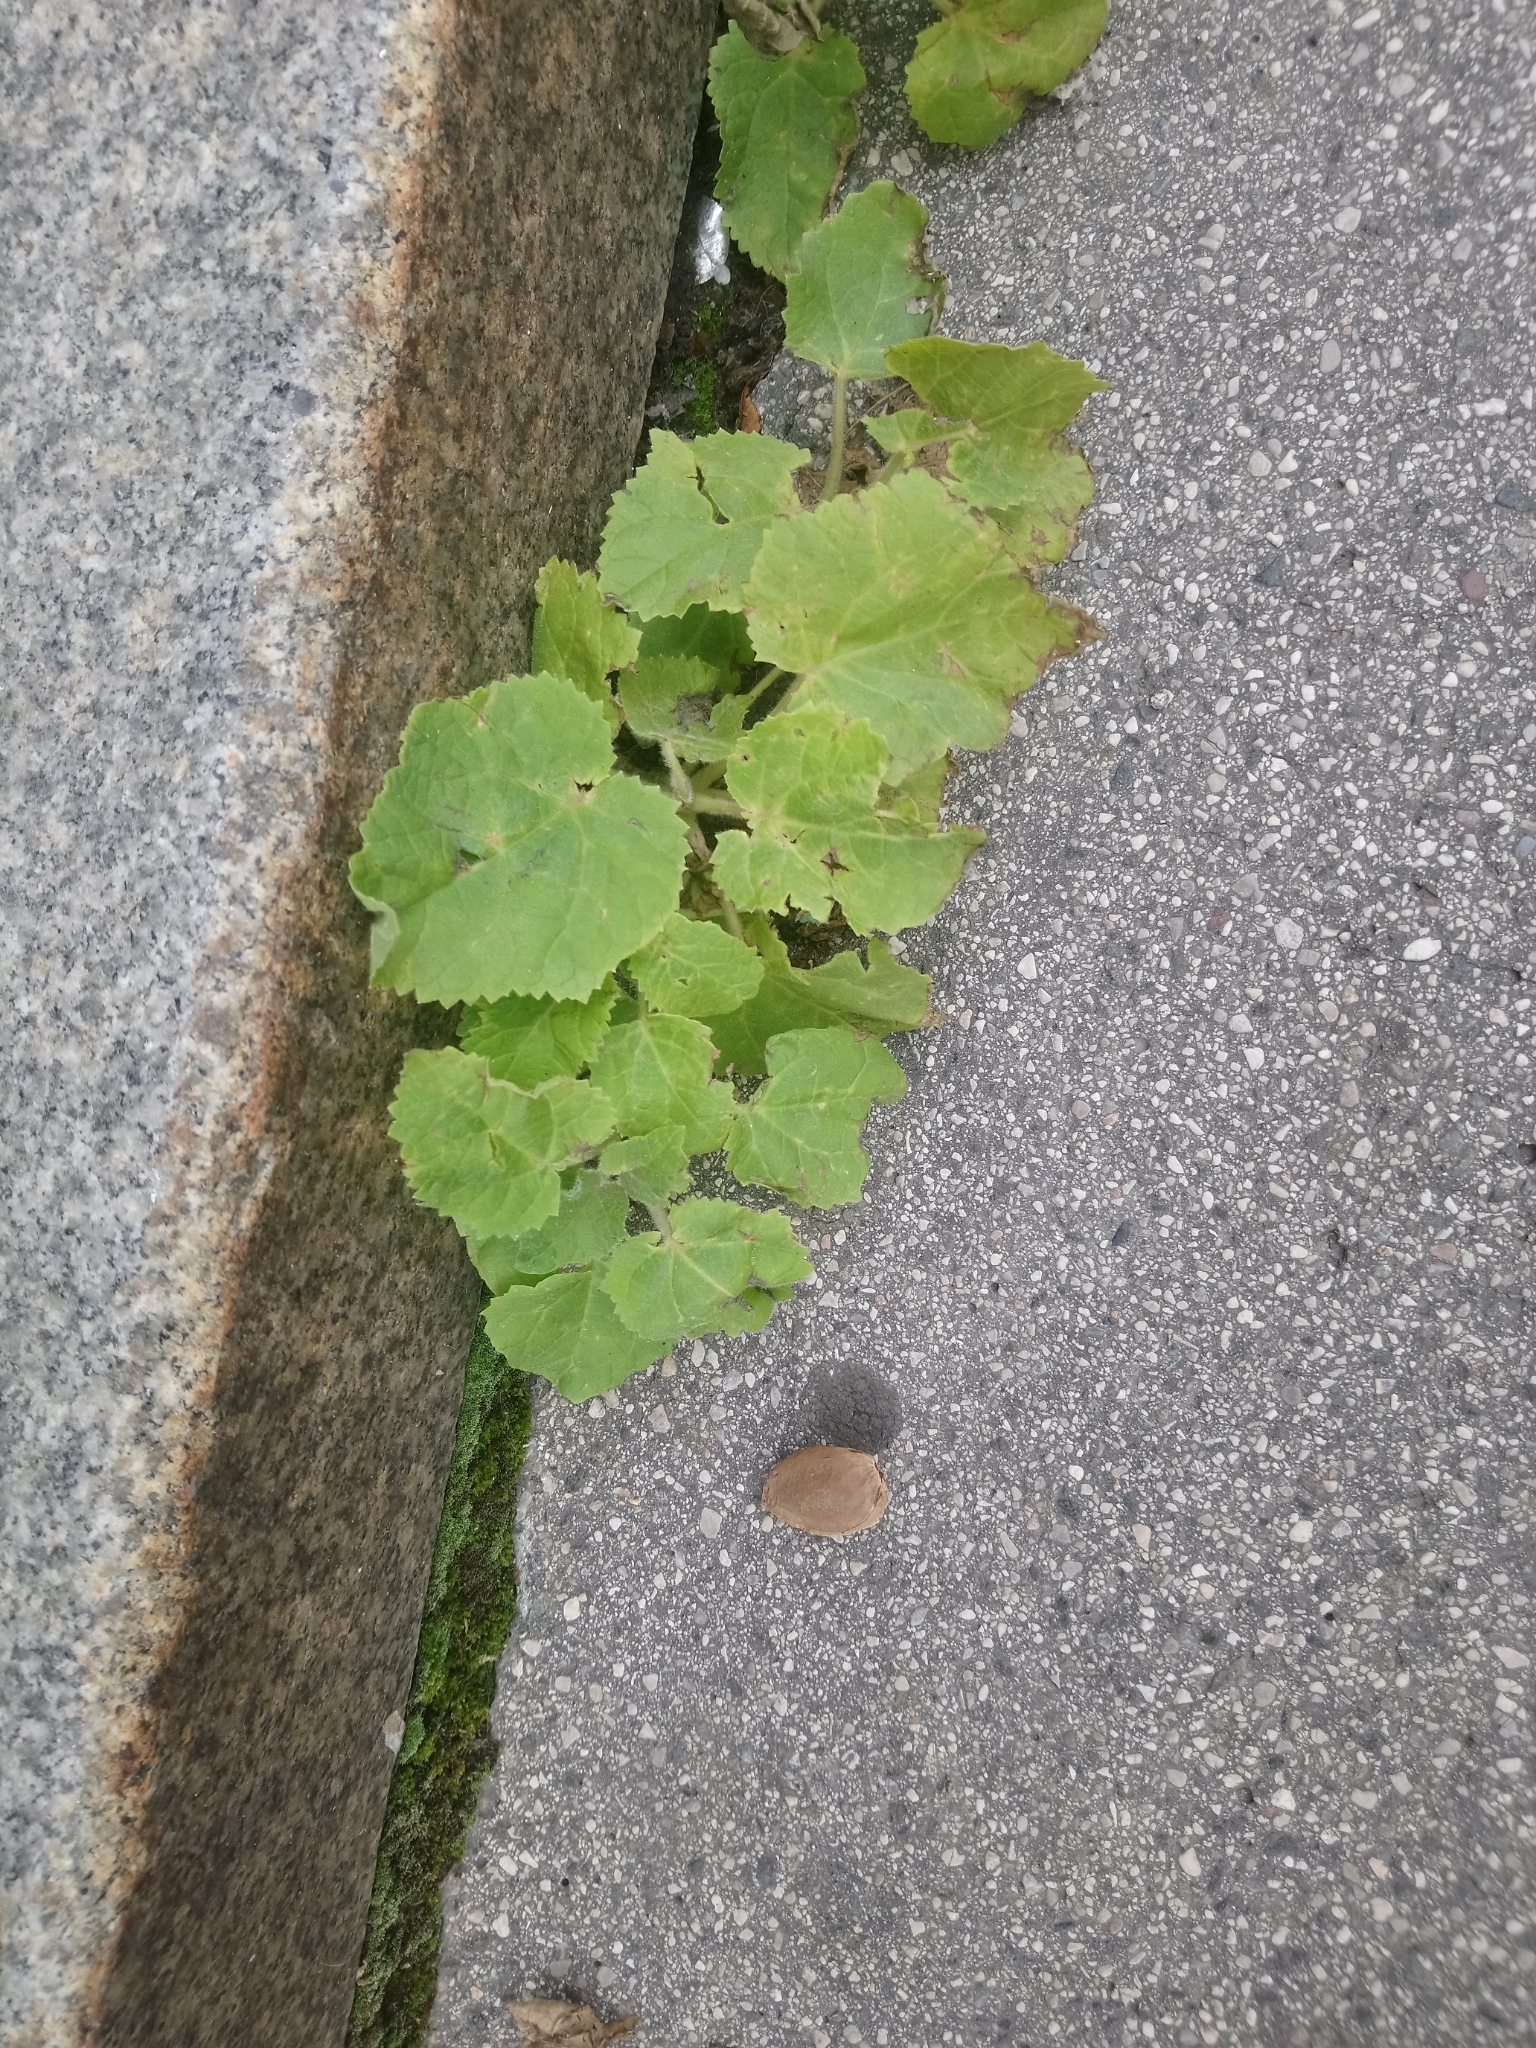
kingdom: Plantae
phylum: Tracheophyta
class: Magnoliopsida
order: Lamiales
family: Paulowniaceae
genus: Paulownia
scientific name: Paulownia tomentosa
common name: Foxglove-tree
